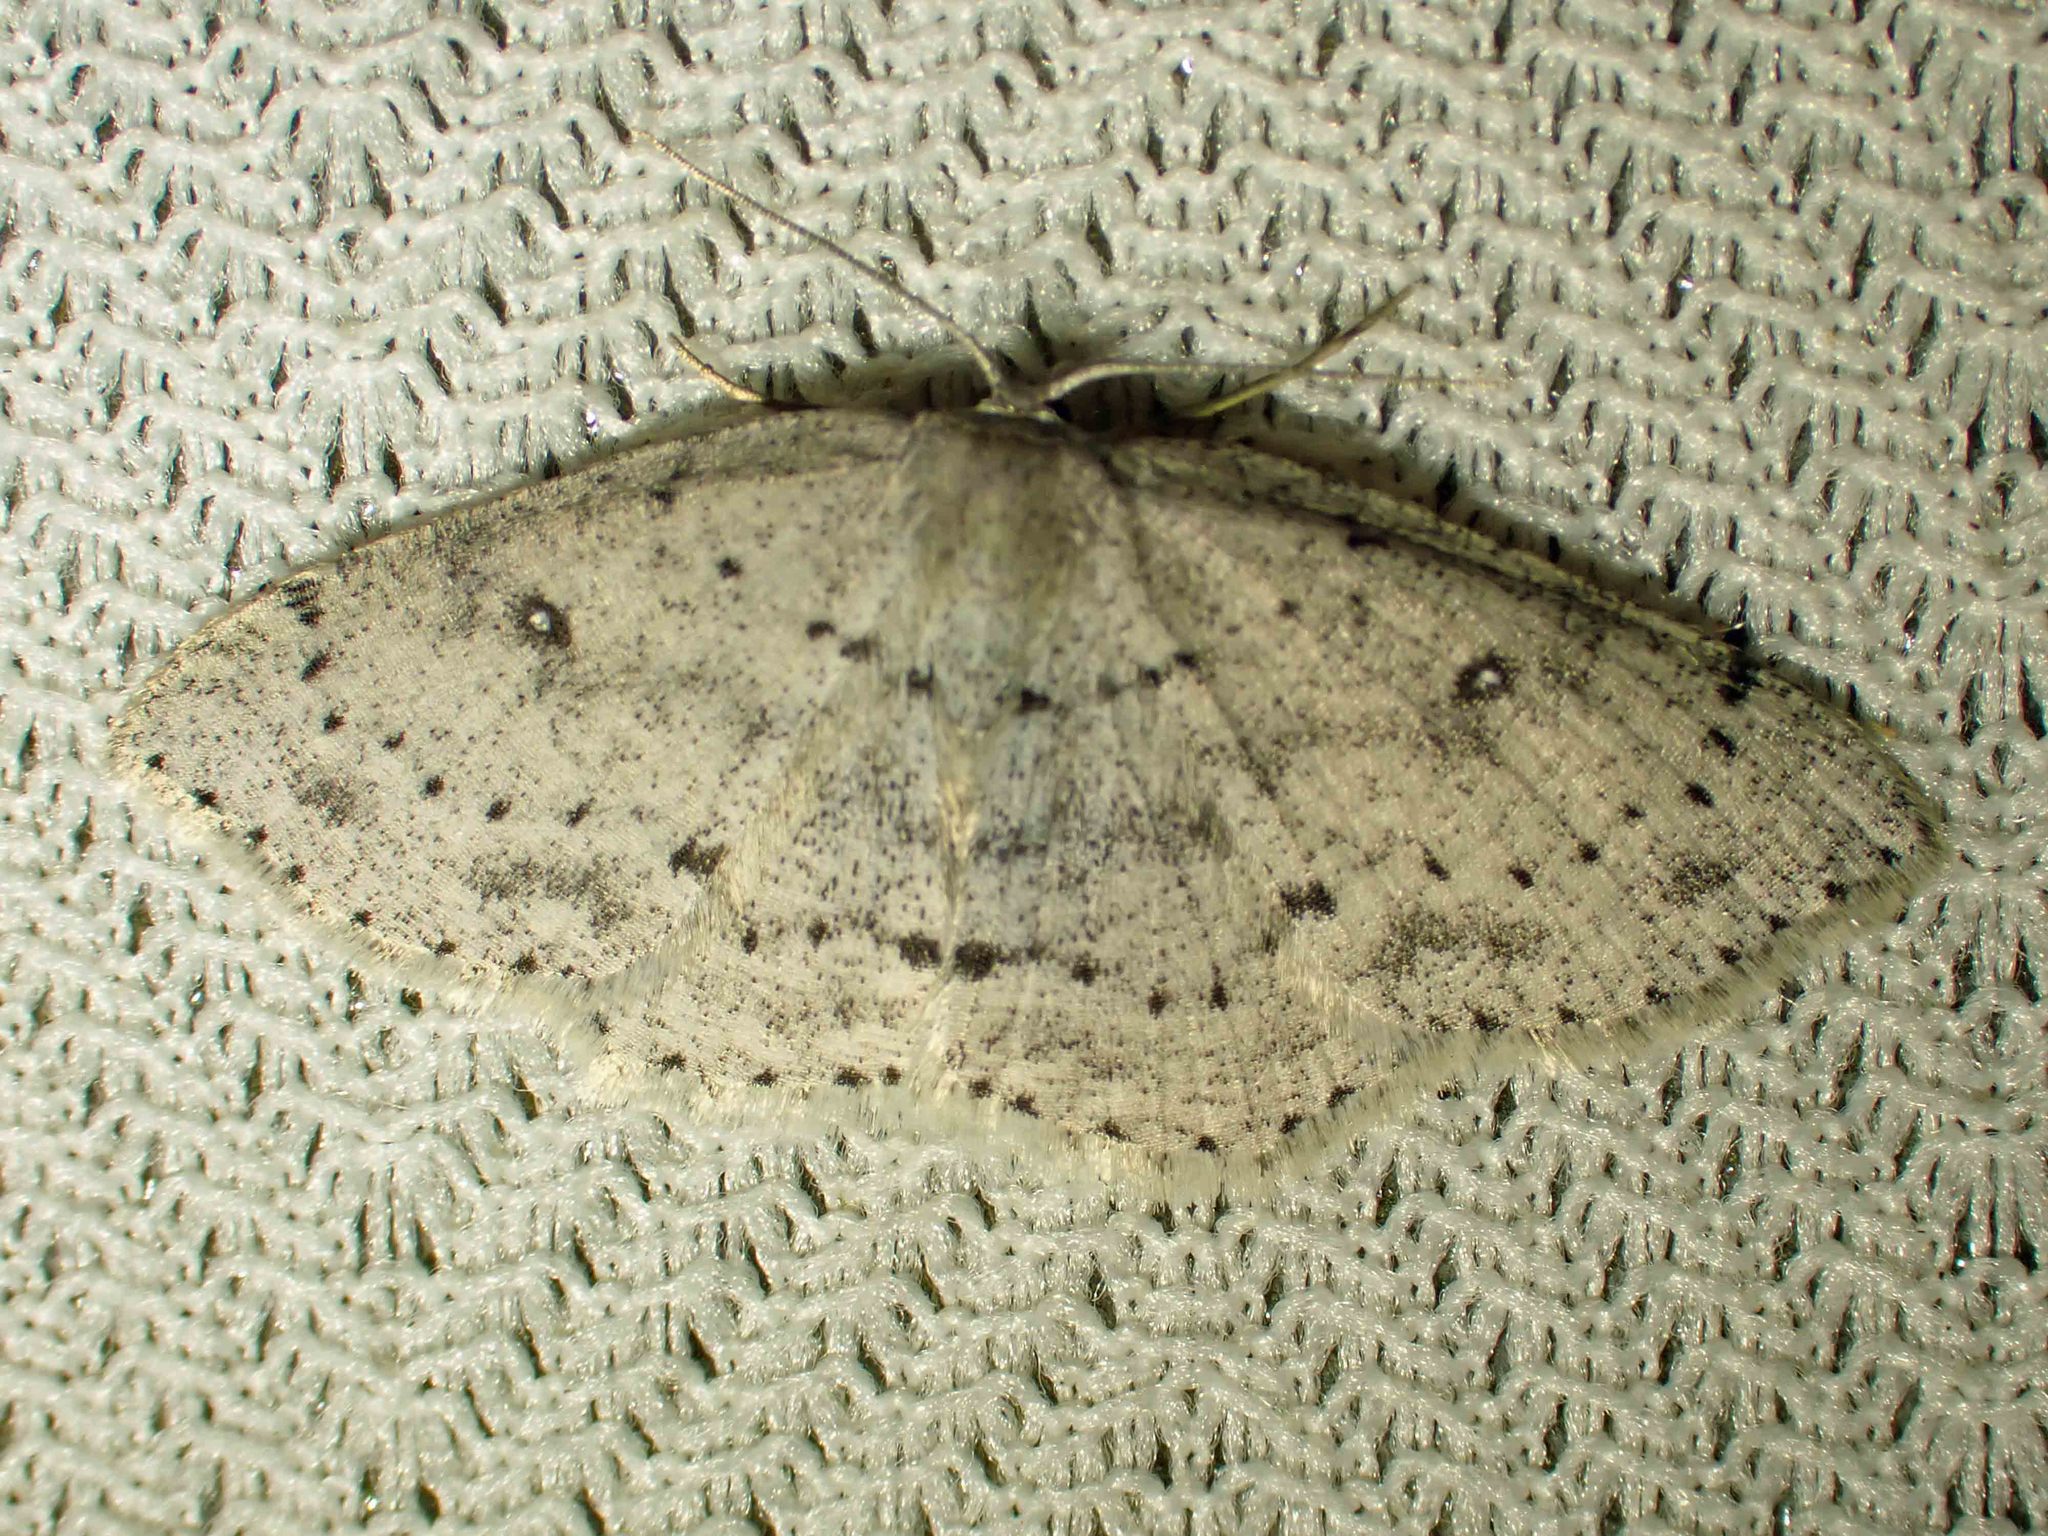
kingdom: Animalia
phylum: Arthropoda
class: Insecta
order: Lepidoptera
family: Geometridae
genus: Cyclophora
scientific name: Cyclophora pendulinaria
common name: Sweet fern geometer
